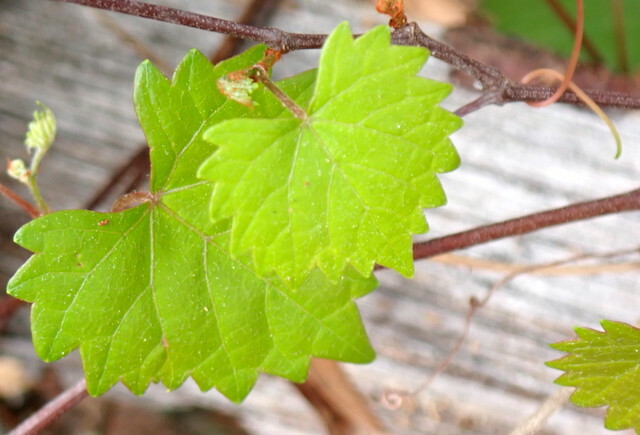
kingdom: Plantae
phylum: Tracheophyta
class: Magnoliopsida
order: Vitales
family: Vitaceae
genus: Vitis
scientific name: Vitis rotundifolia
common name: Muscadine grape
